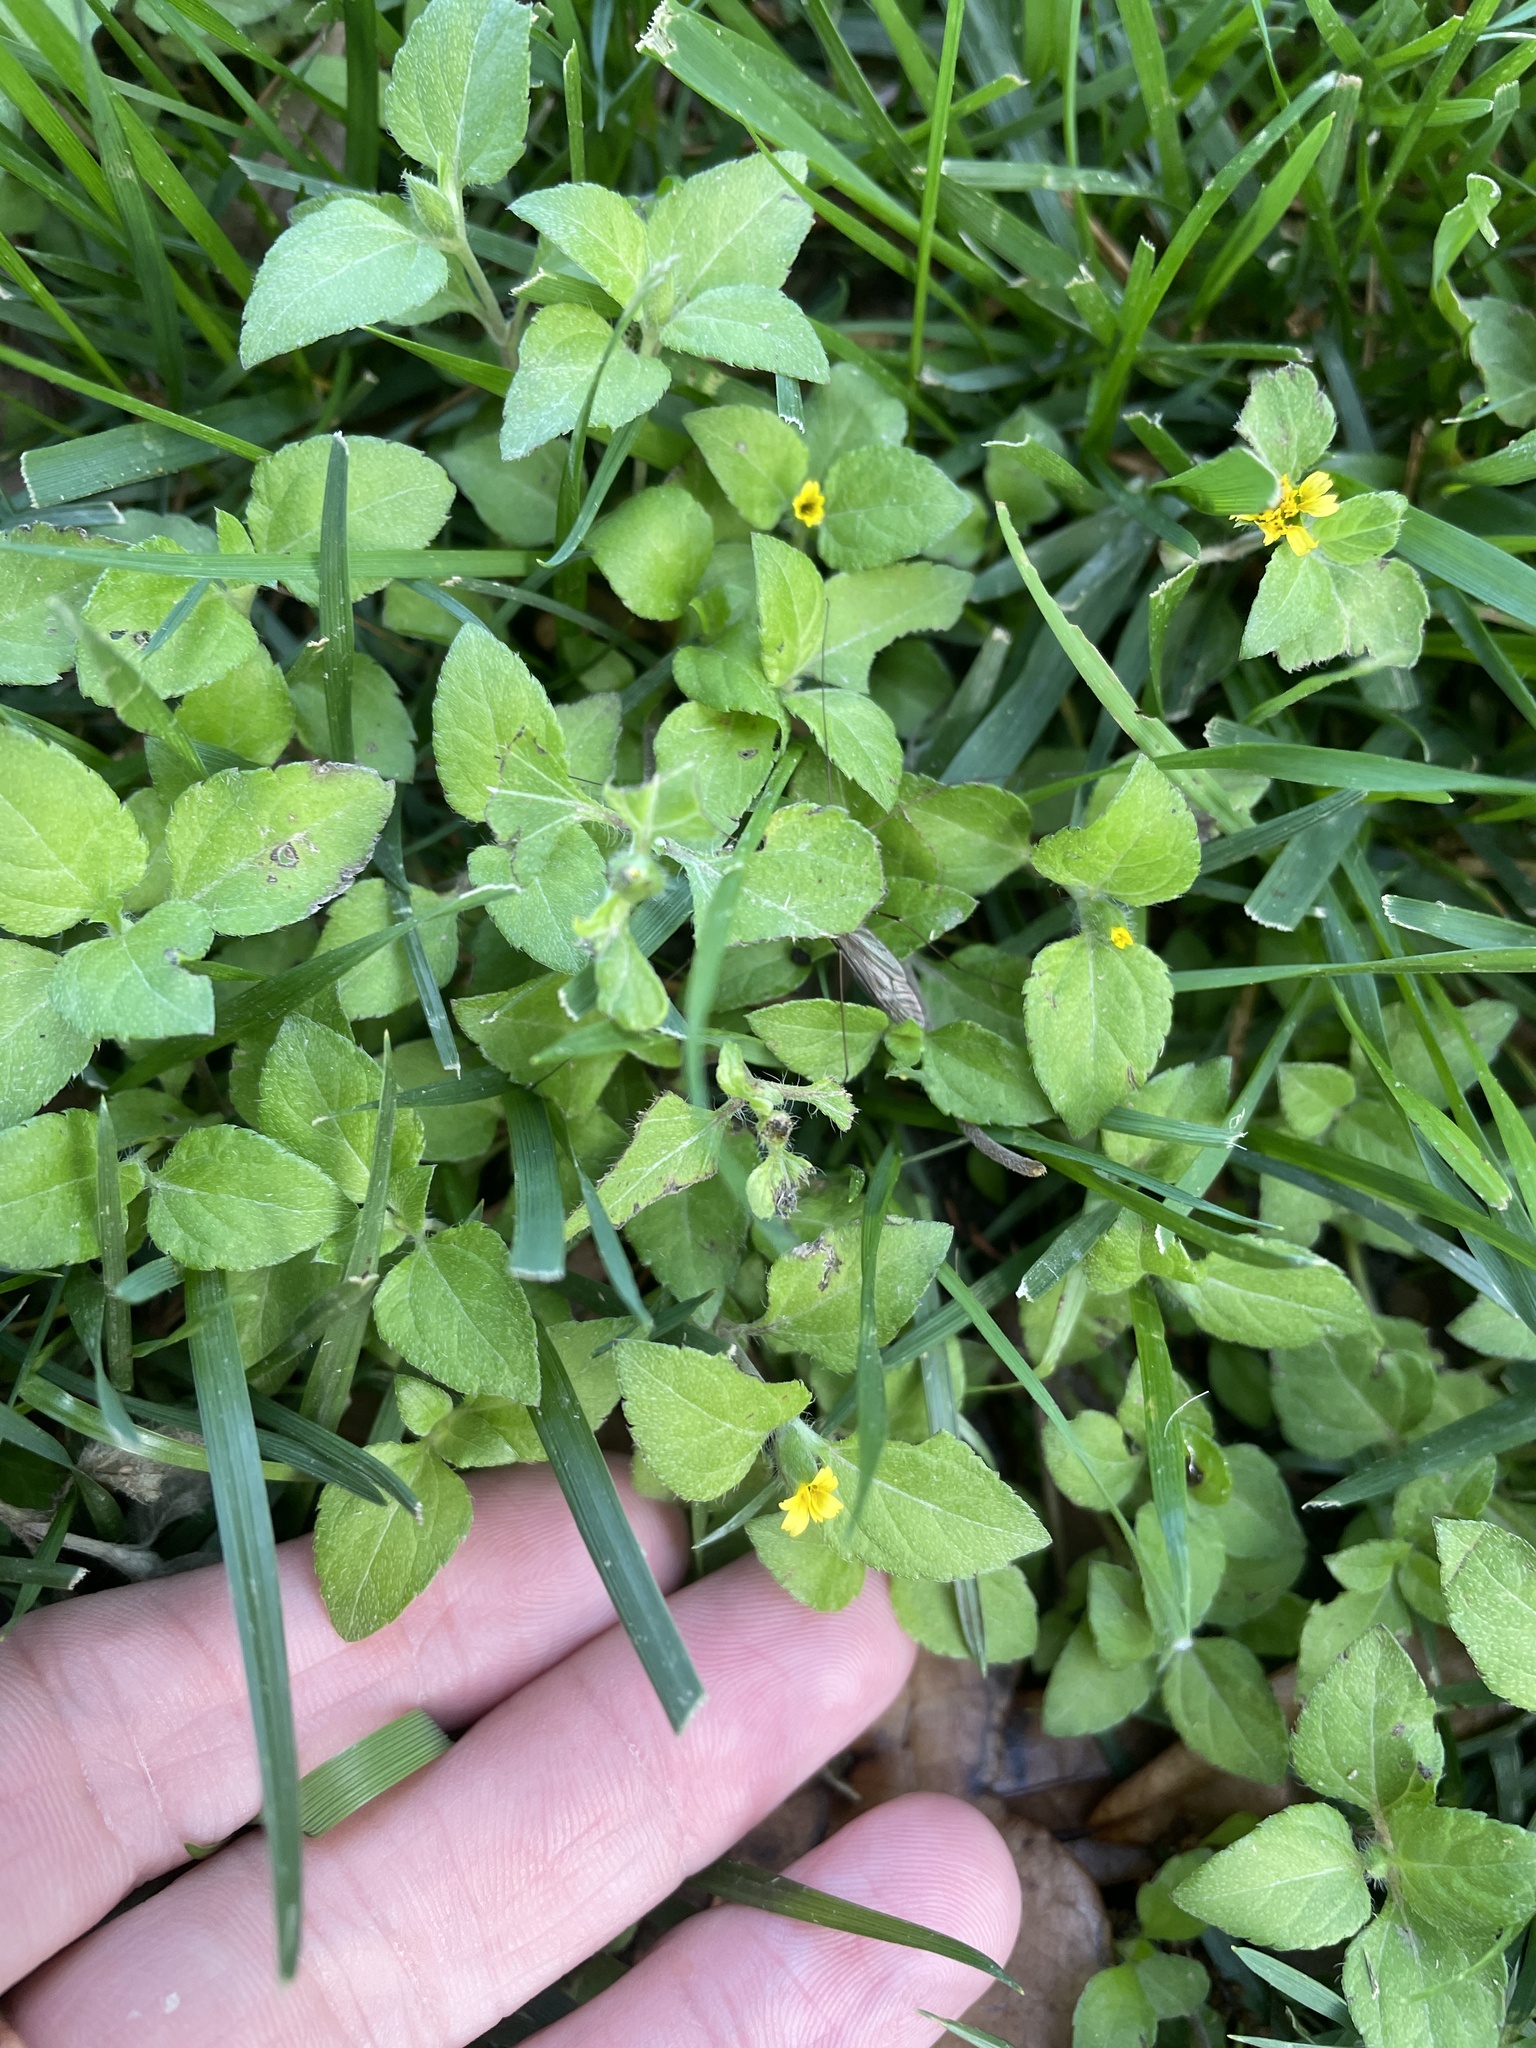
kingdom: Plantae
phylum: Tracheophyta
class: Magnoliopsida
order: Asterales
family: Asteraceae
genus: Calyptocarpus
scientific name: Calyptocarpus vialis
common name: Straggler daisy
